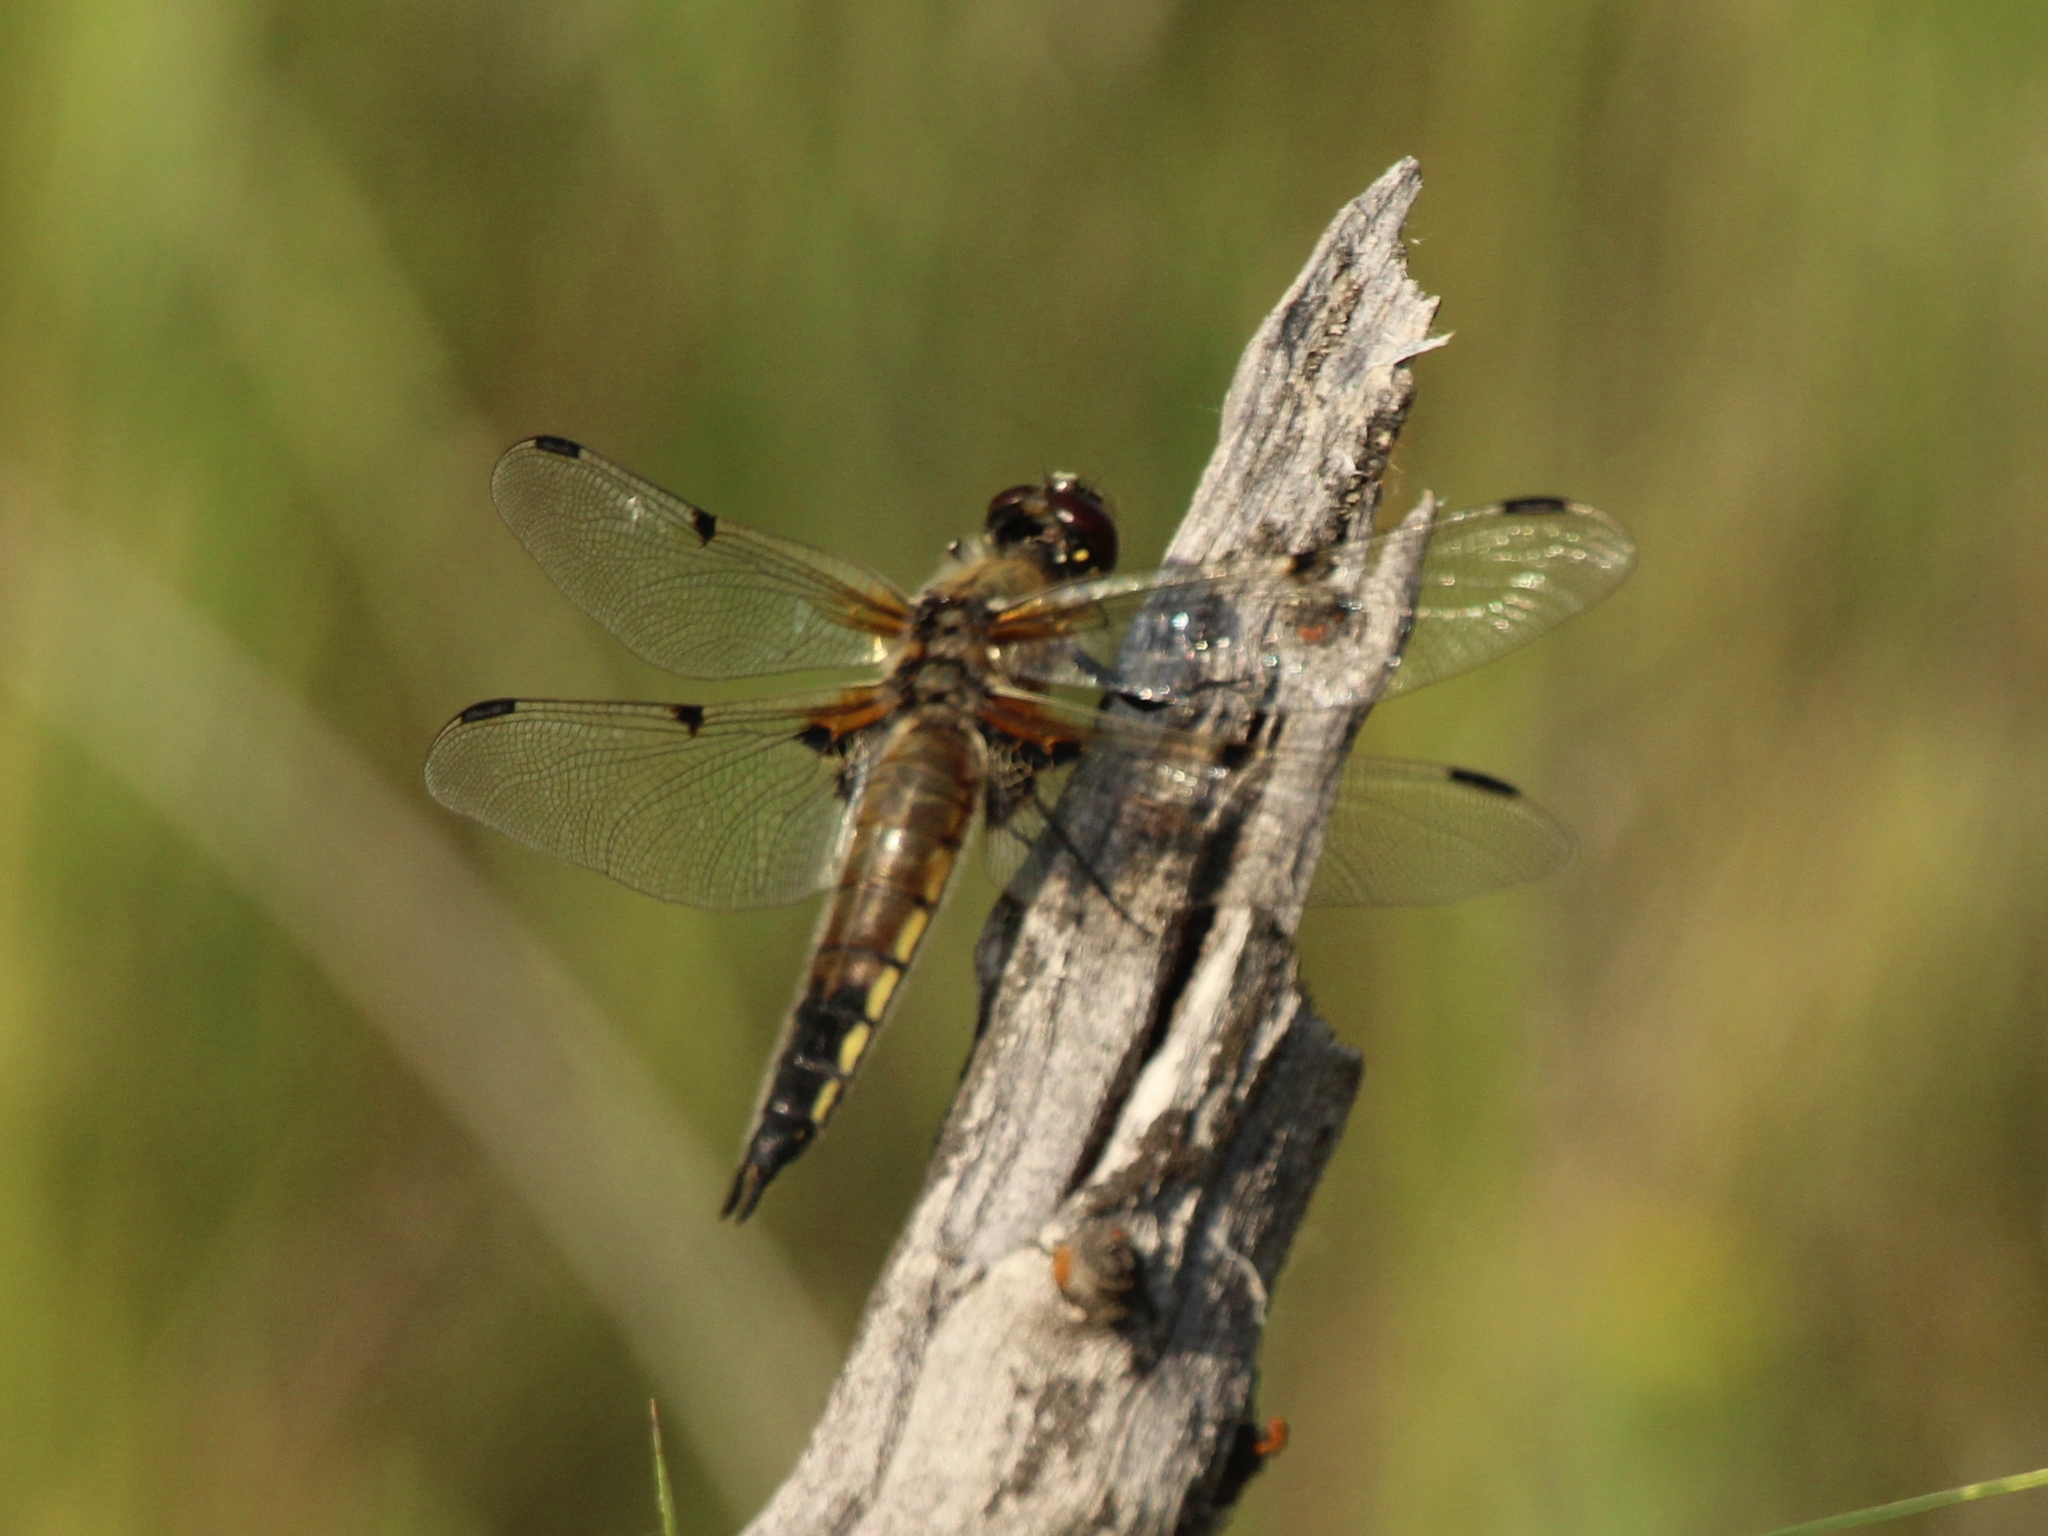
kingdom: Animalia
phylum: Arthropoda
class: Insecta
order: Odonata
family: Libellulidae
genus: Libellula
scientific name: Libellula quadrimaculata
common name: Four-spotted chaser
